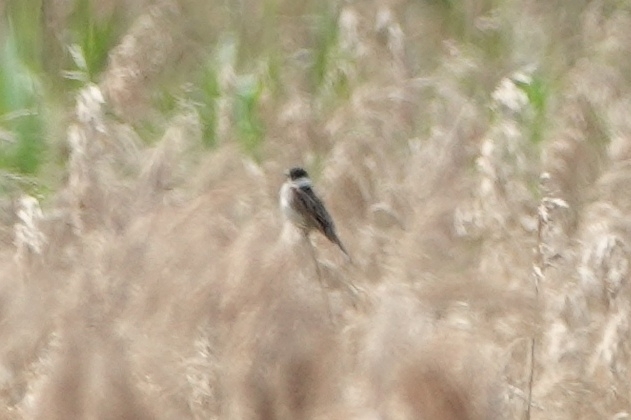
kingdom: Animalia
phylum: Chordata
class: Aves
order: Passeriformes
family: Emberizidae
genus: Emberiza
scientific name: Emberiza schoeniclus
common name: Reed bunting
